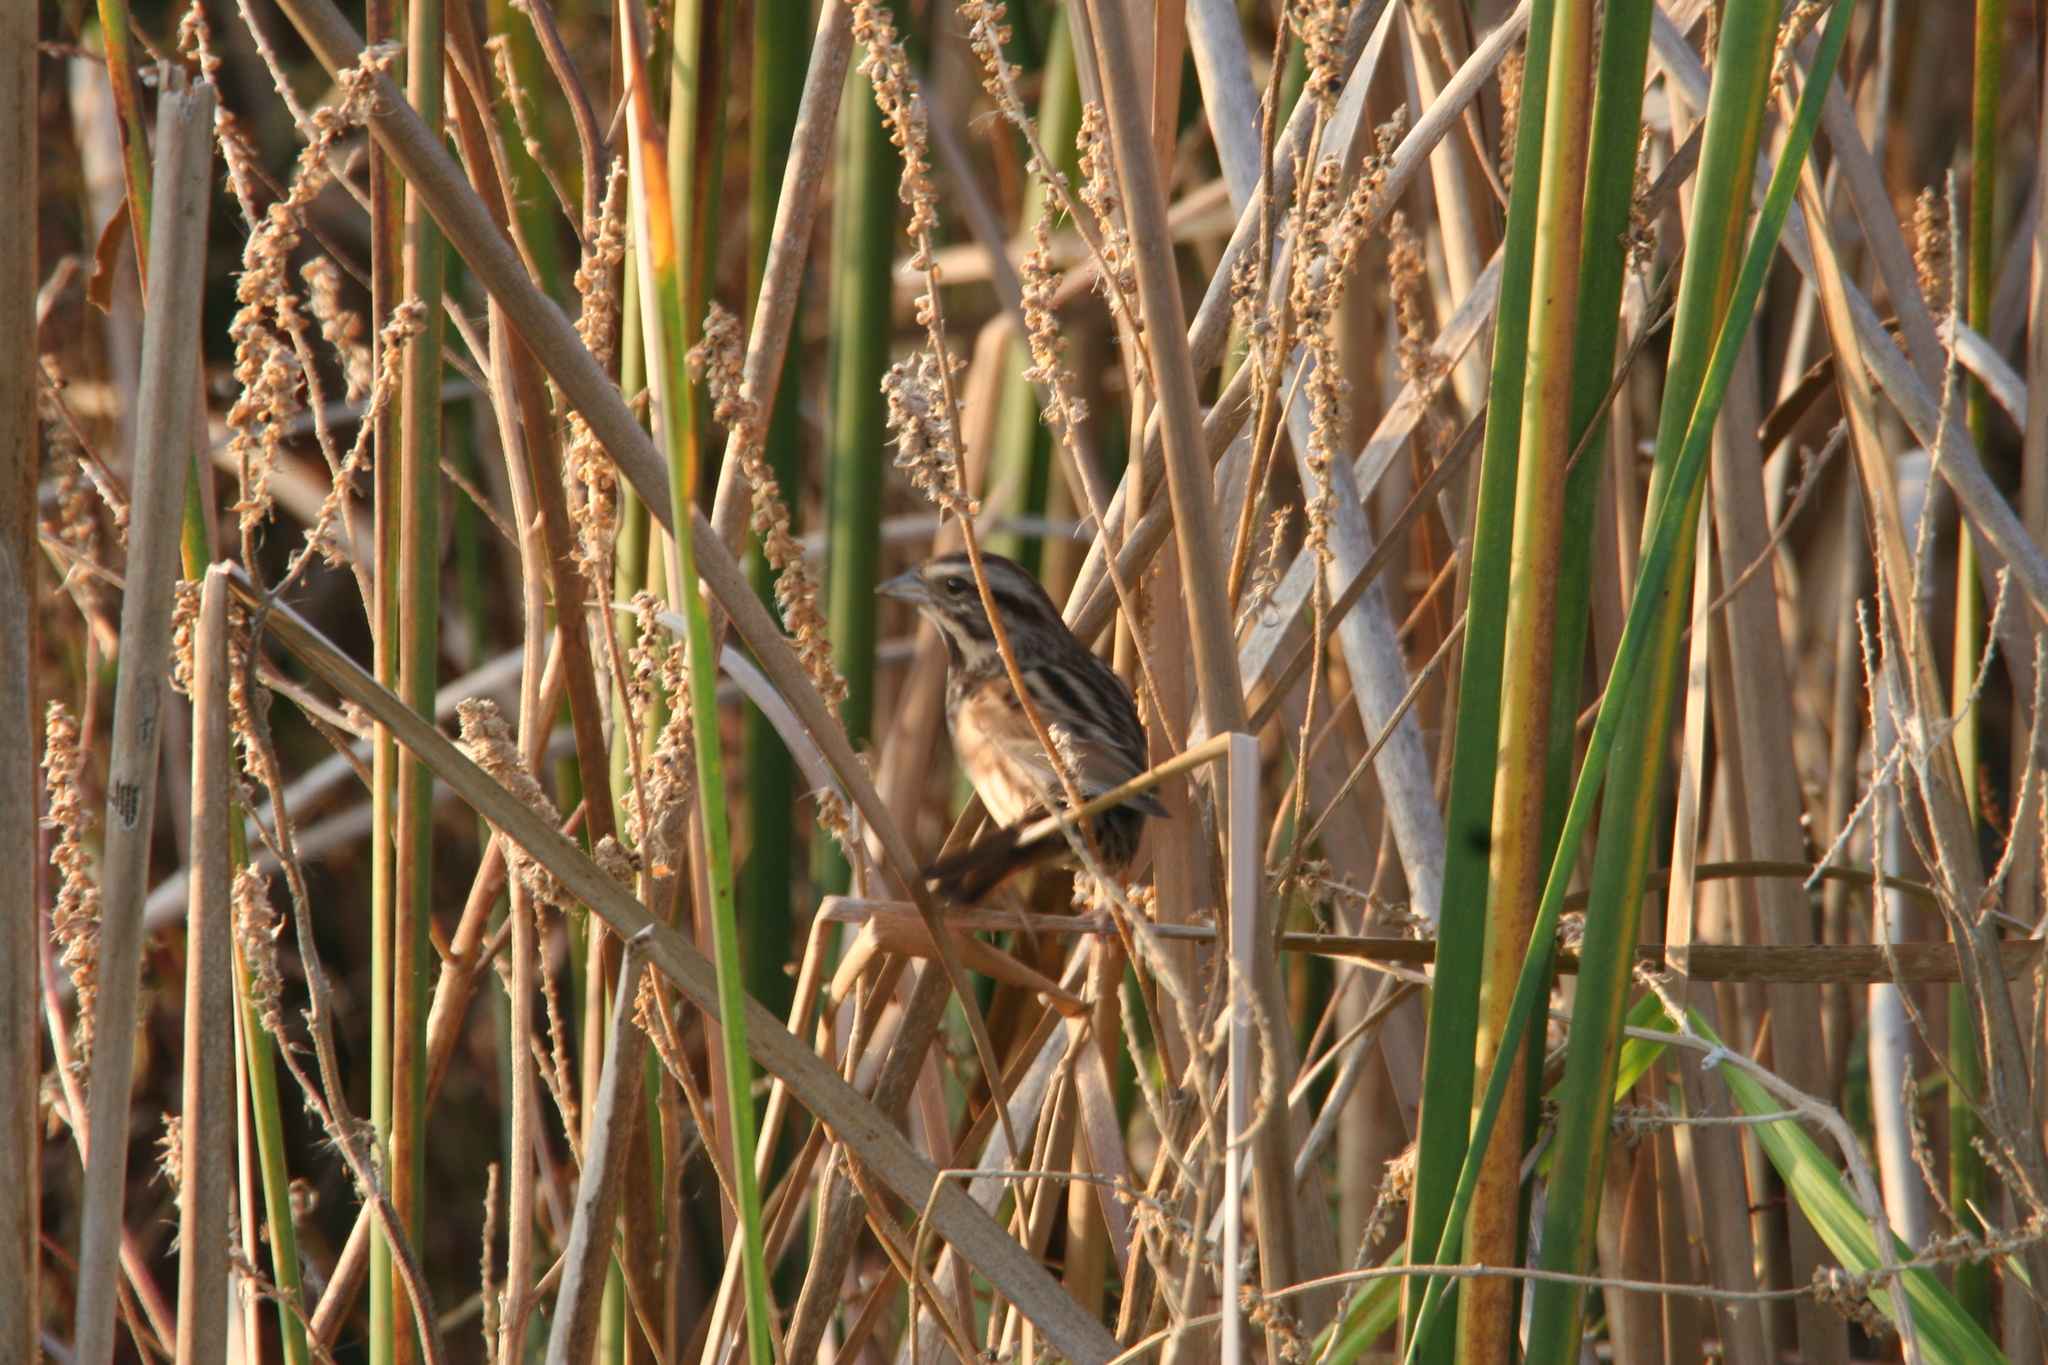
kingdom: Animalia
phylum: Chordata
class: Aves
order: Passeriformes
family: Passerellidae
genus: Melospiza
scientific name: Melospiza melodia
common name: Song sparrow
